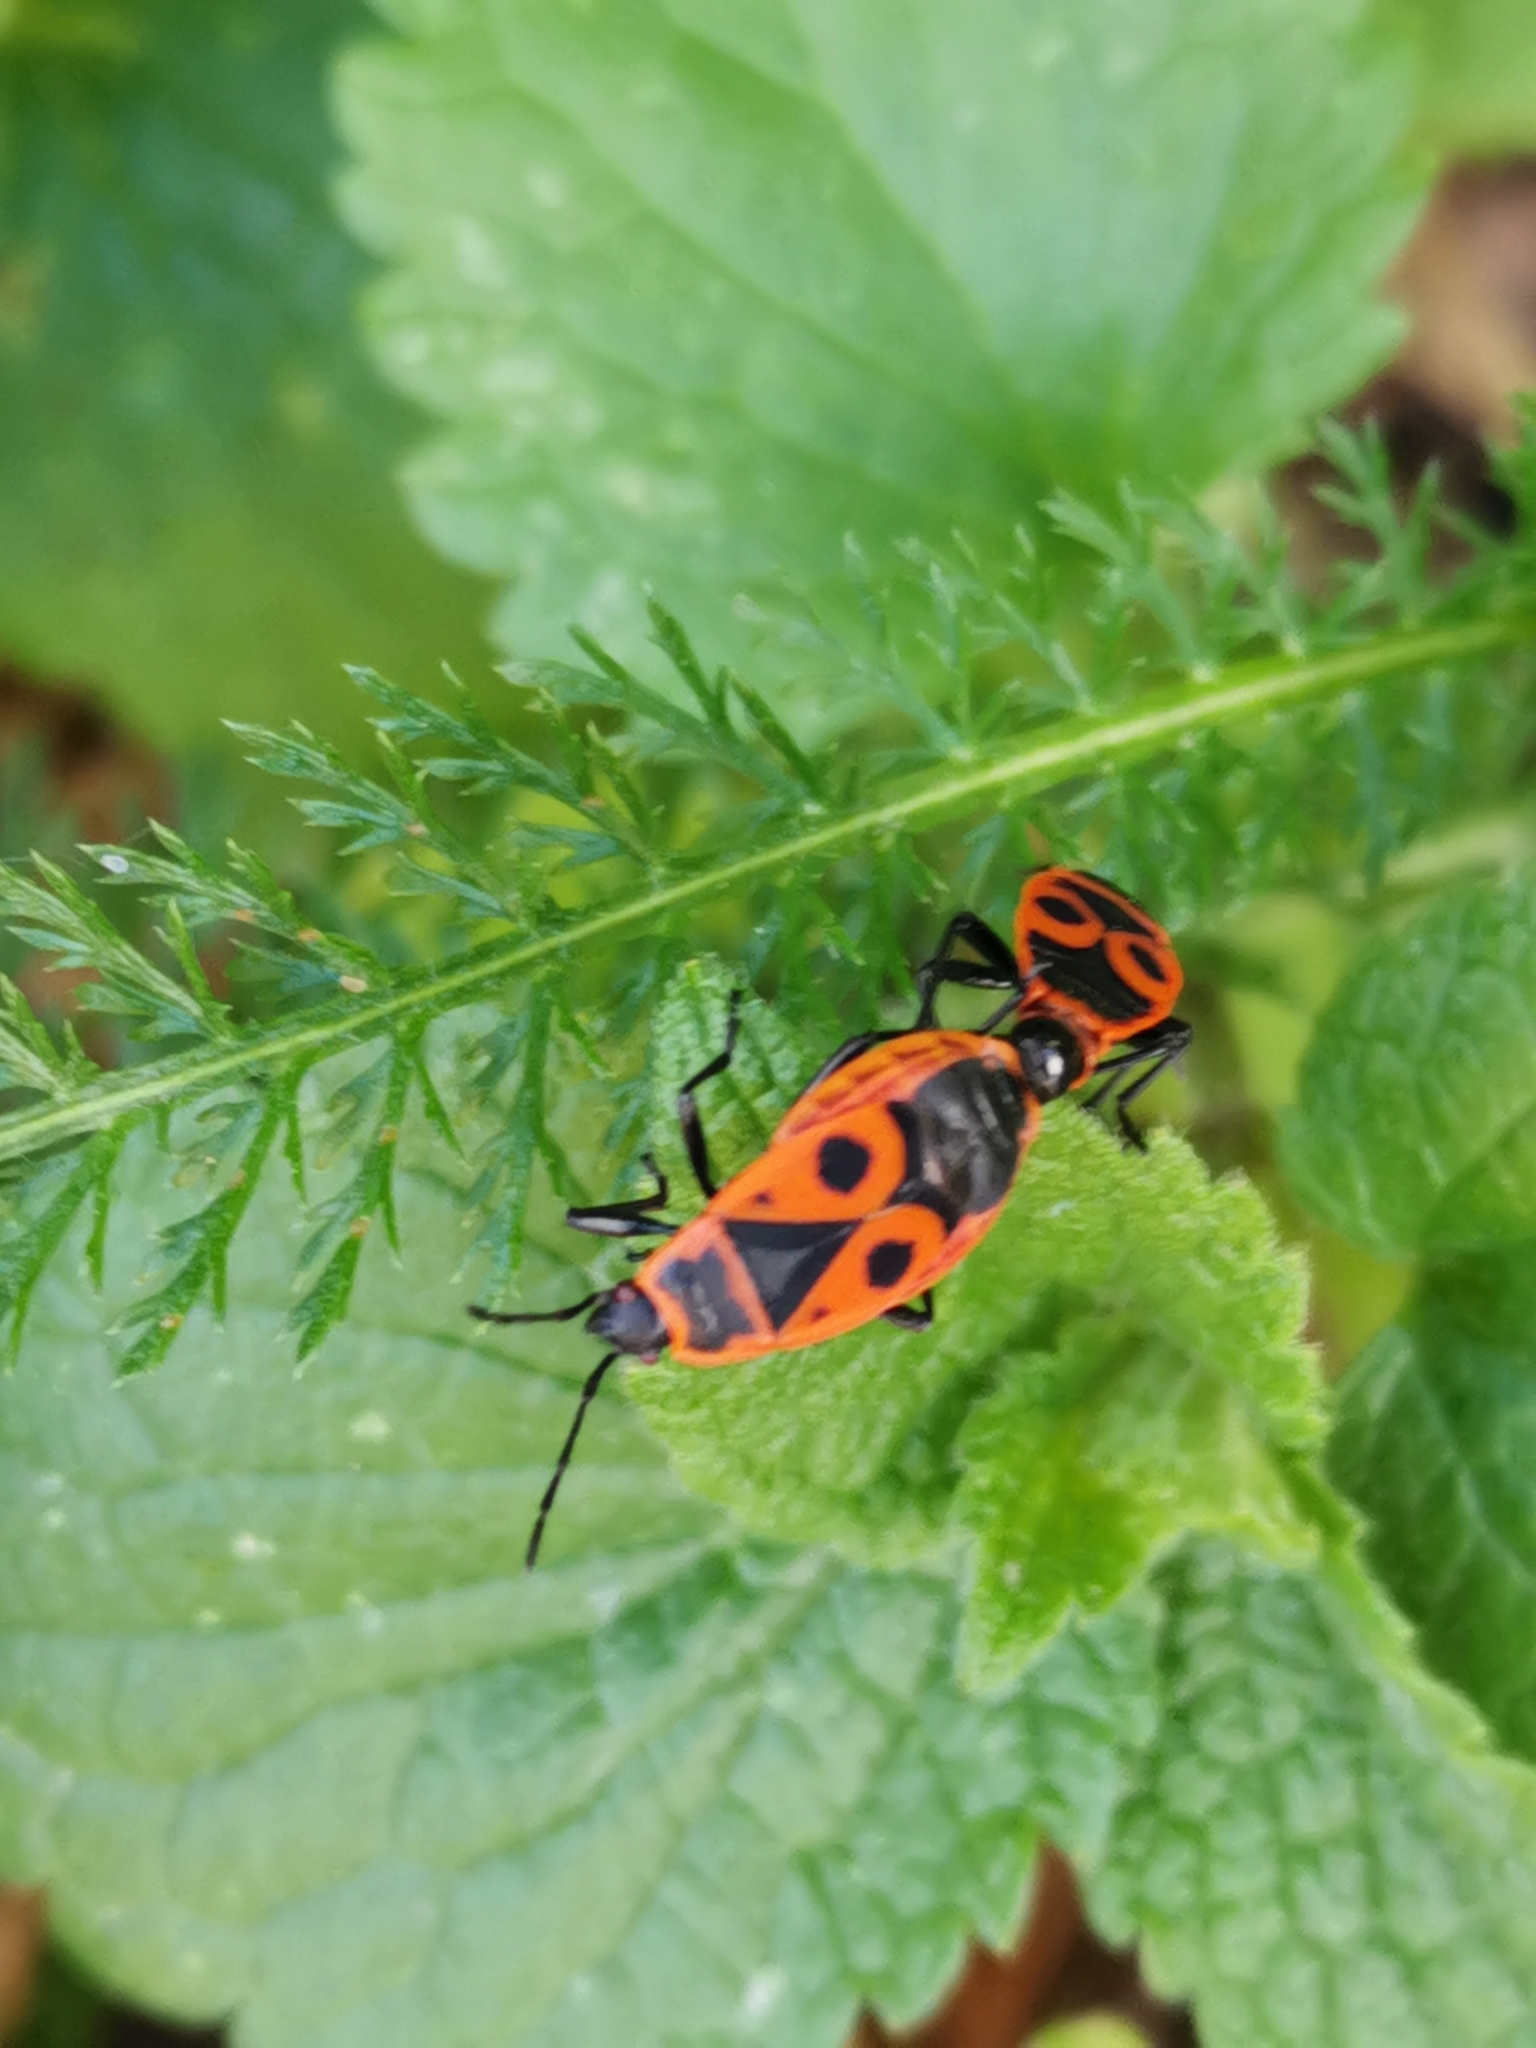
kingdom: Animalia
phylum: Arthropoda
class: Insecta
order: Hemiptera
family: Pyrrhocoridae
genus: Pyrrhocoris
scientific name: Pyrrhocoris apterus
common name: Firebug
